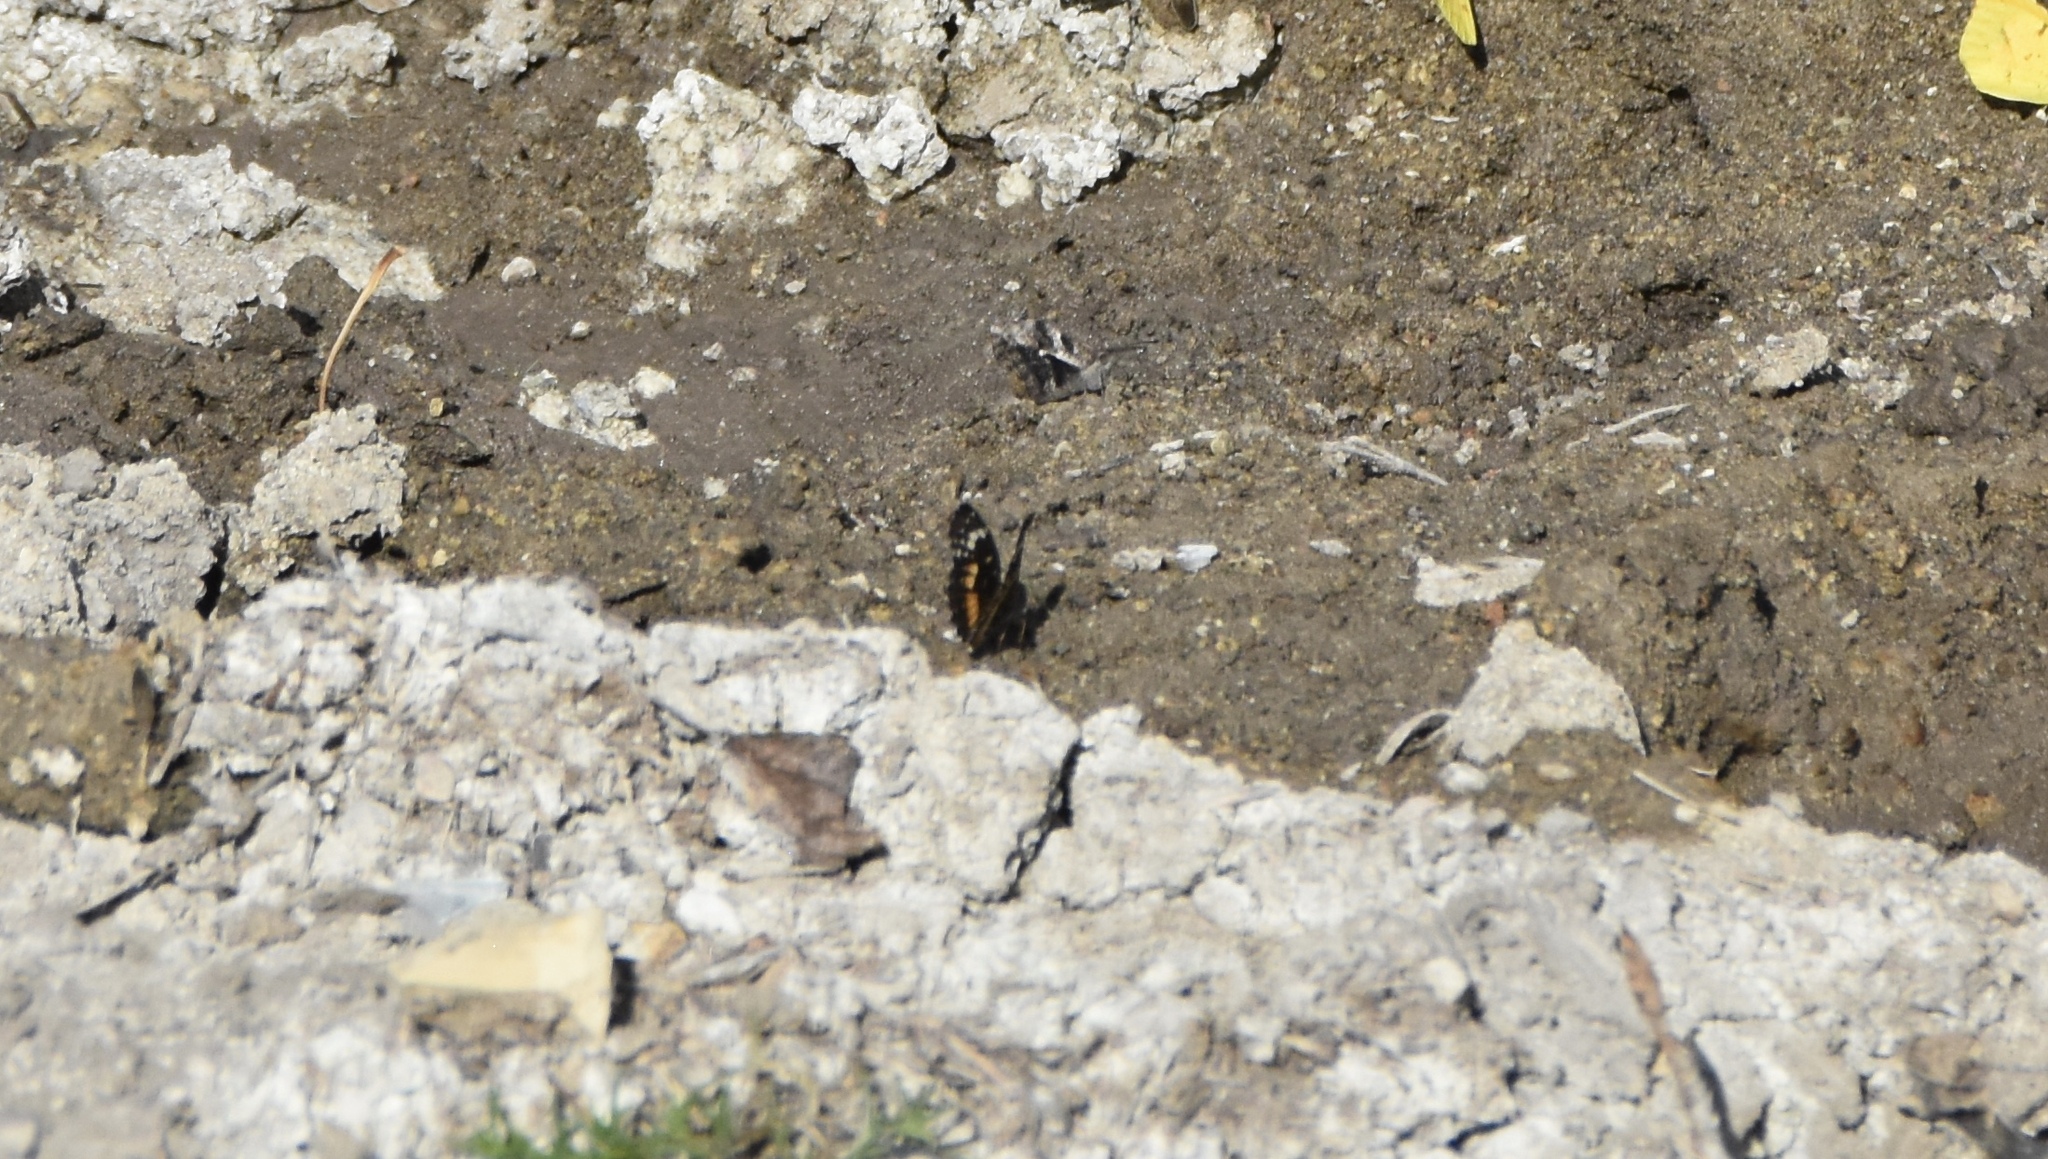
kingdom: Animalia
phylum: Arthropoda
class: Insecta
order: Lepidoptera
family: Nymphalidae
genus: Chlosyne
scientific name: Chlosyne lacinia
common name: Bordered patch
